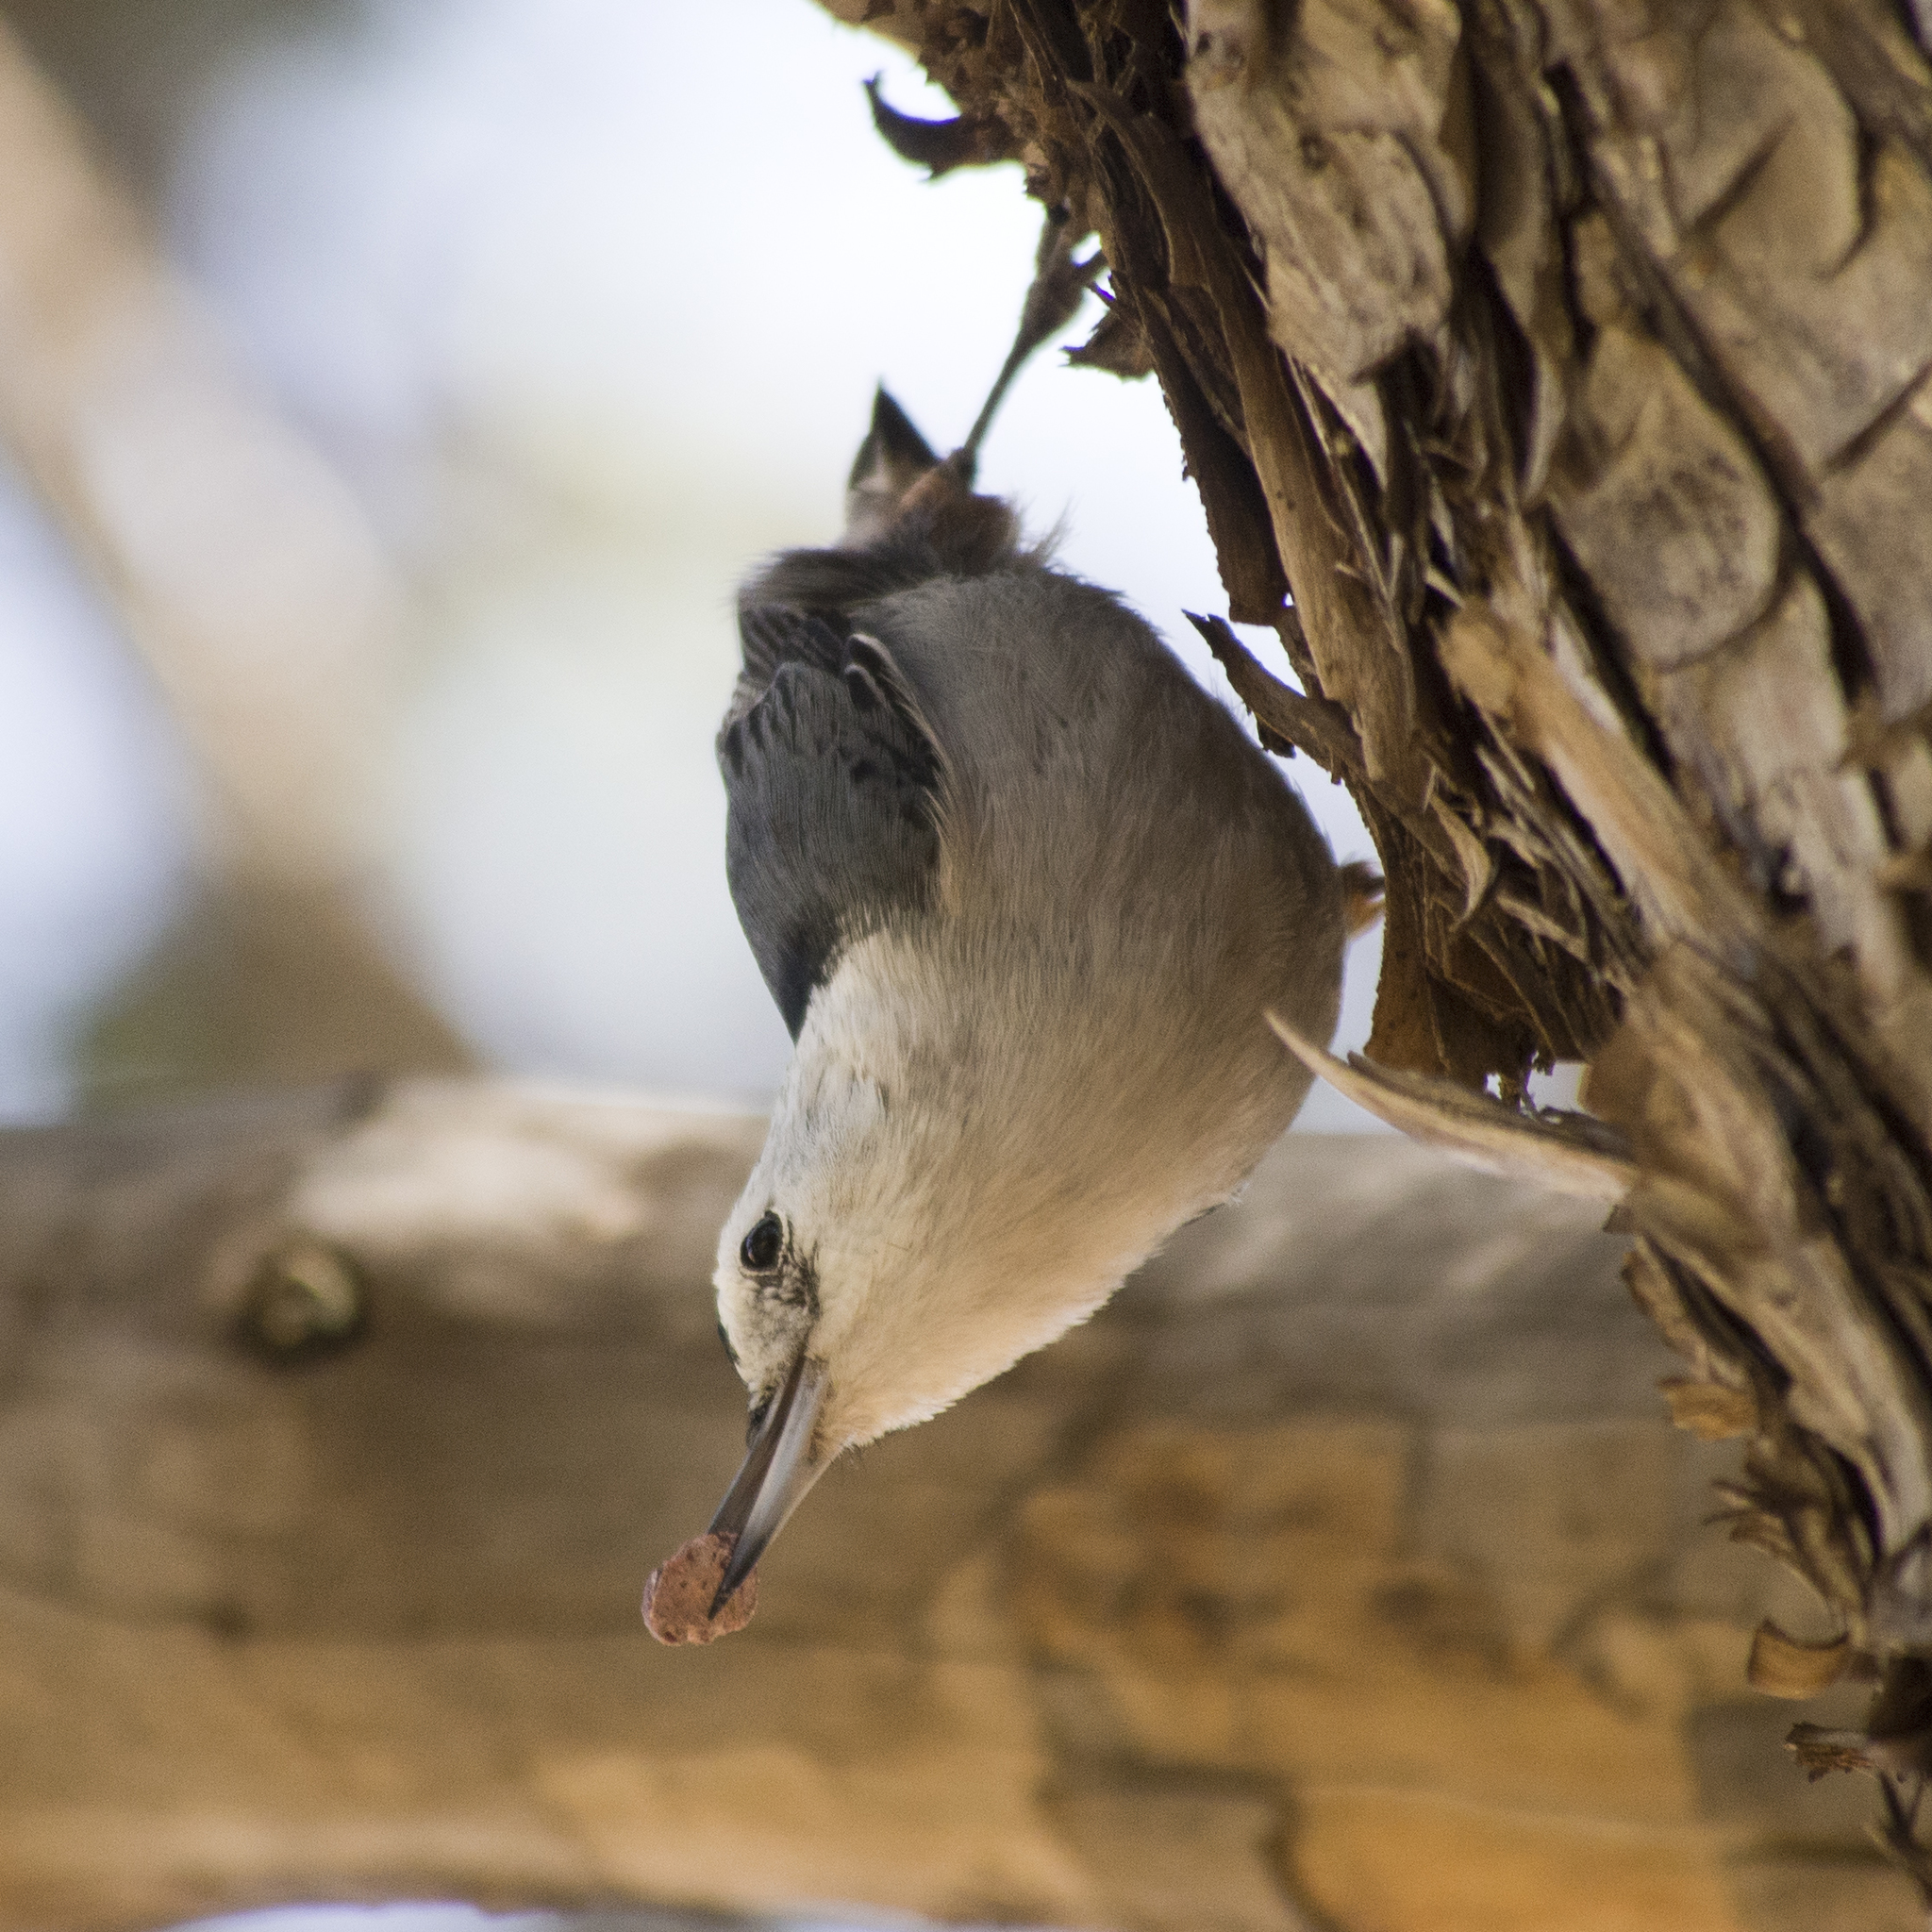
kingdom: Animalia
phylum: Chordata
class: Aves
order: Passeriformes
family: Sittidae
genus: Sitta
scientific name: Sitta carolinensis
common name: White-breasted nuthatch
